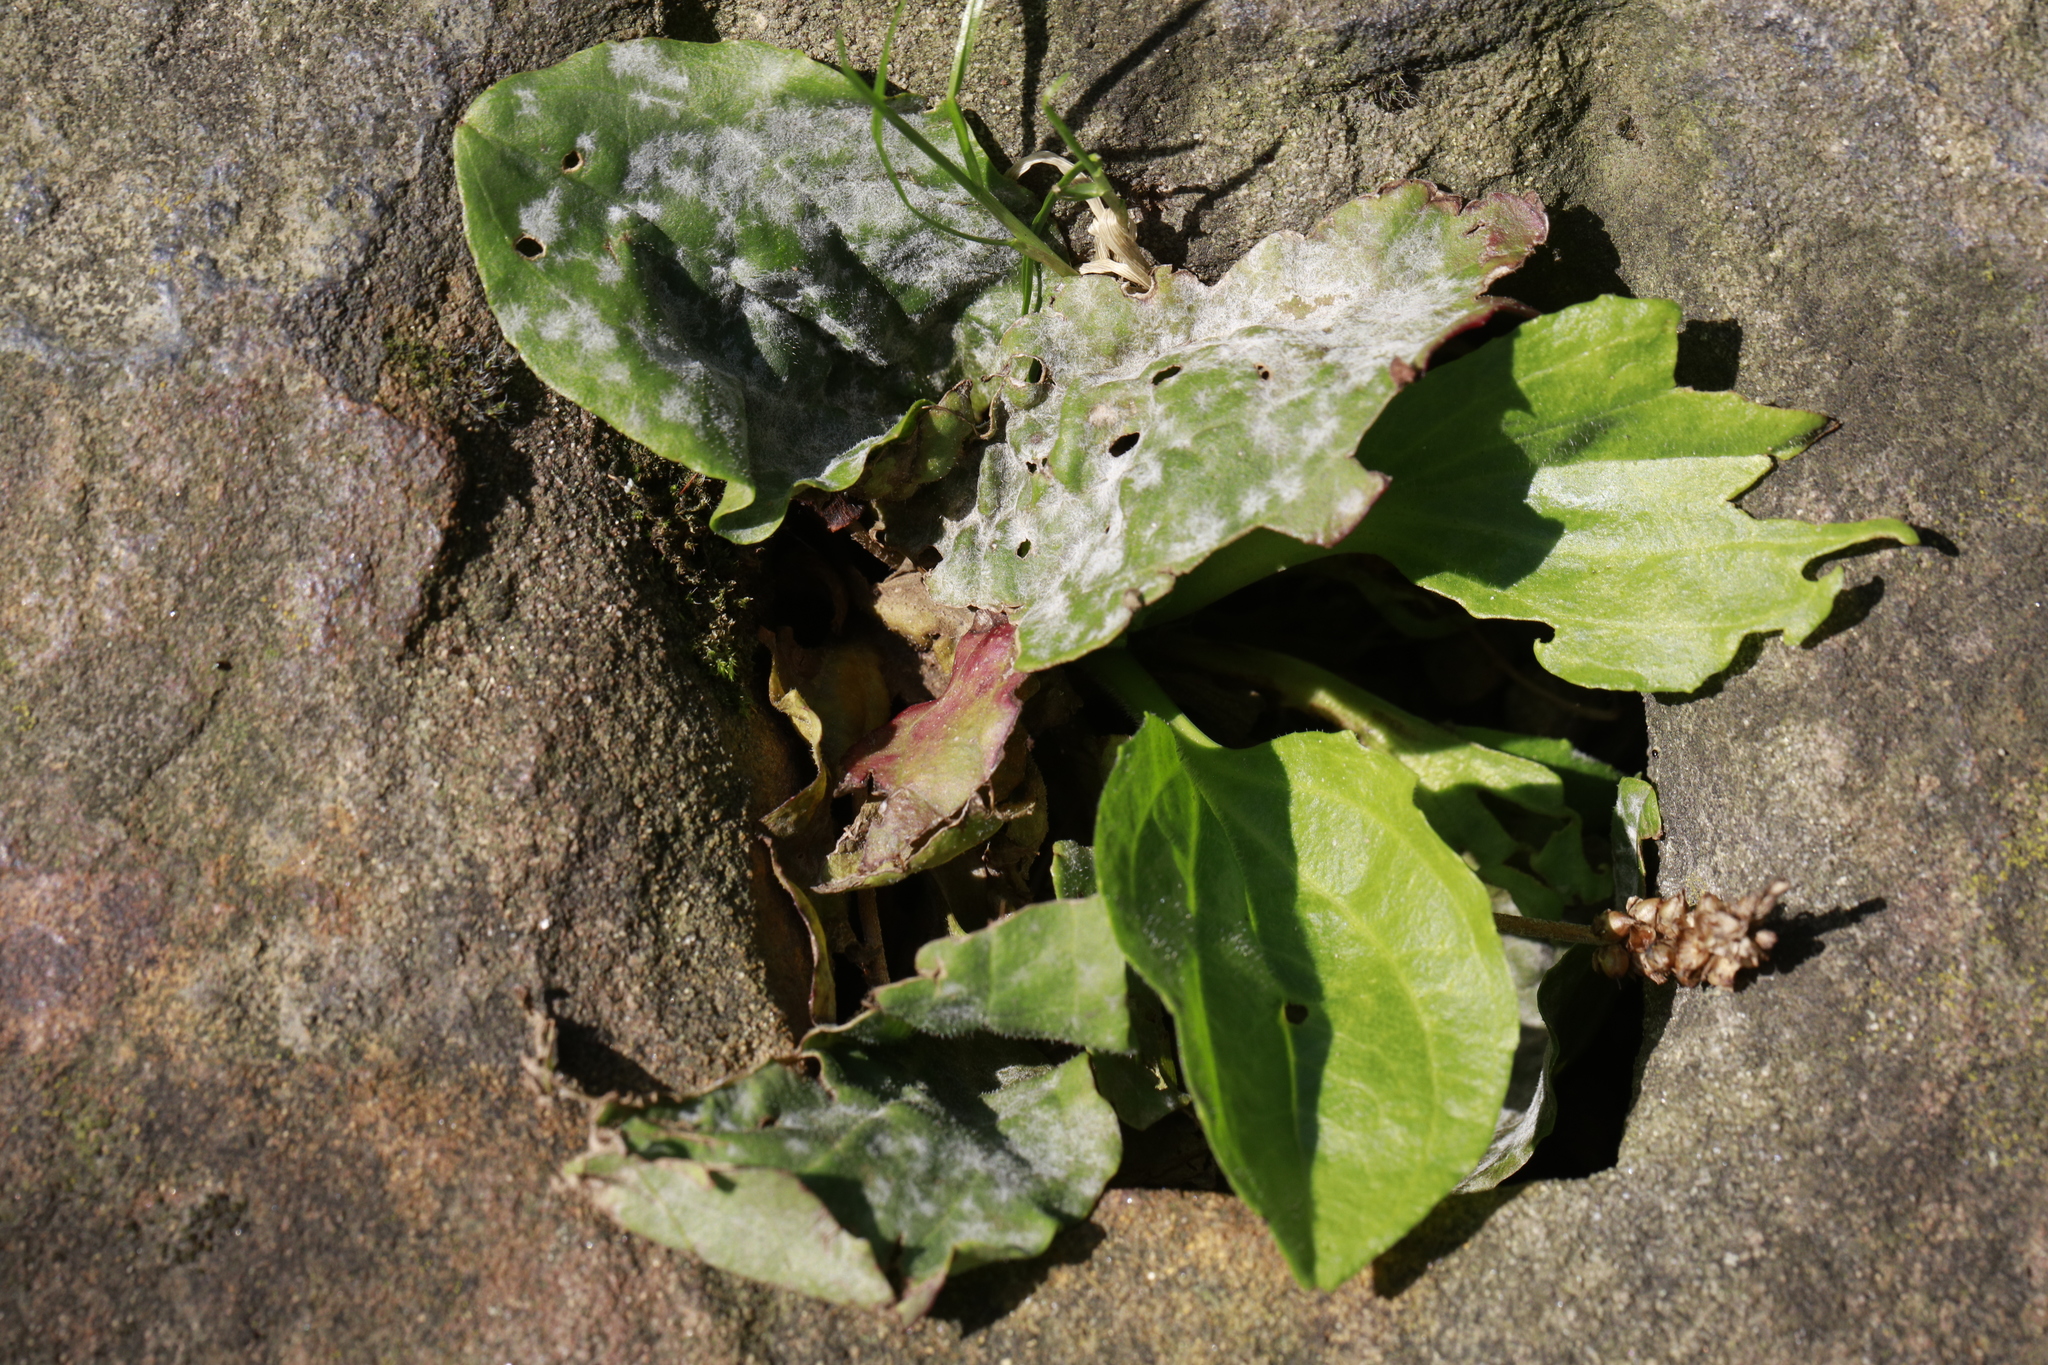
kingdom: Fungi
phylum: Ascomycota
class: Leotiomycetes
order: Helotiales
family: Erysiphaceae
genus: Golovinomyces
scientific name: Golovinomyces sordidus
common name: Plantain mildew
